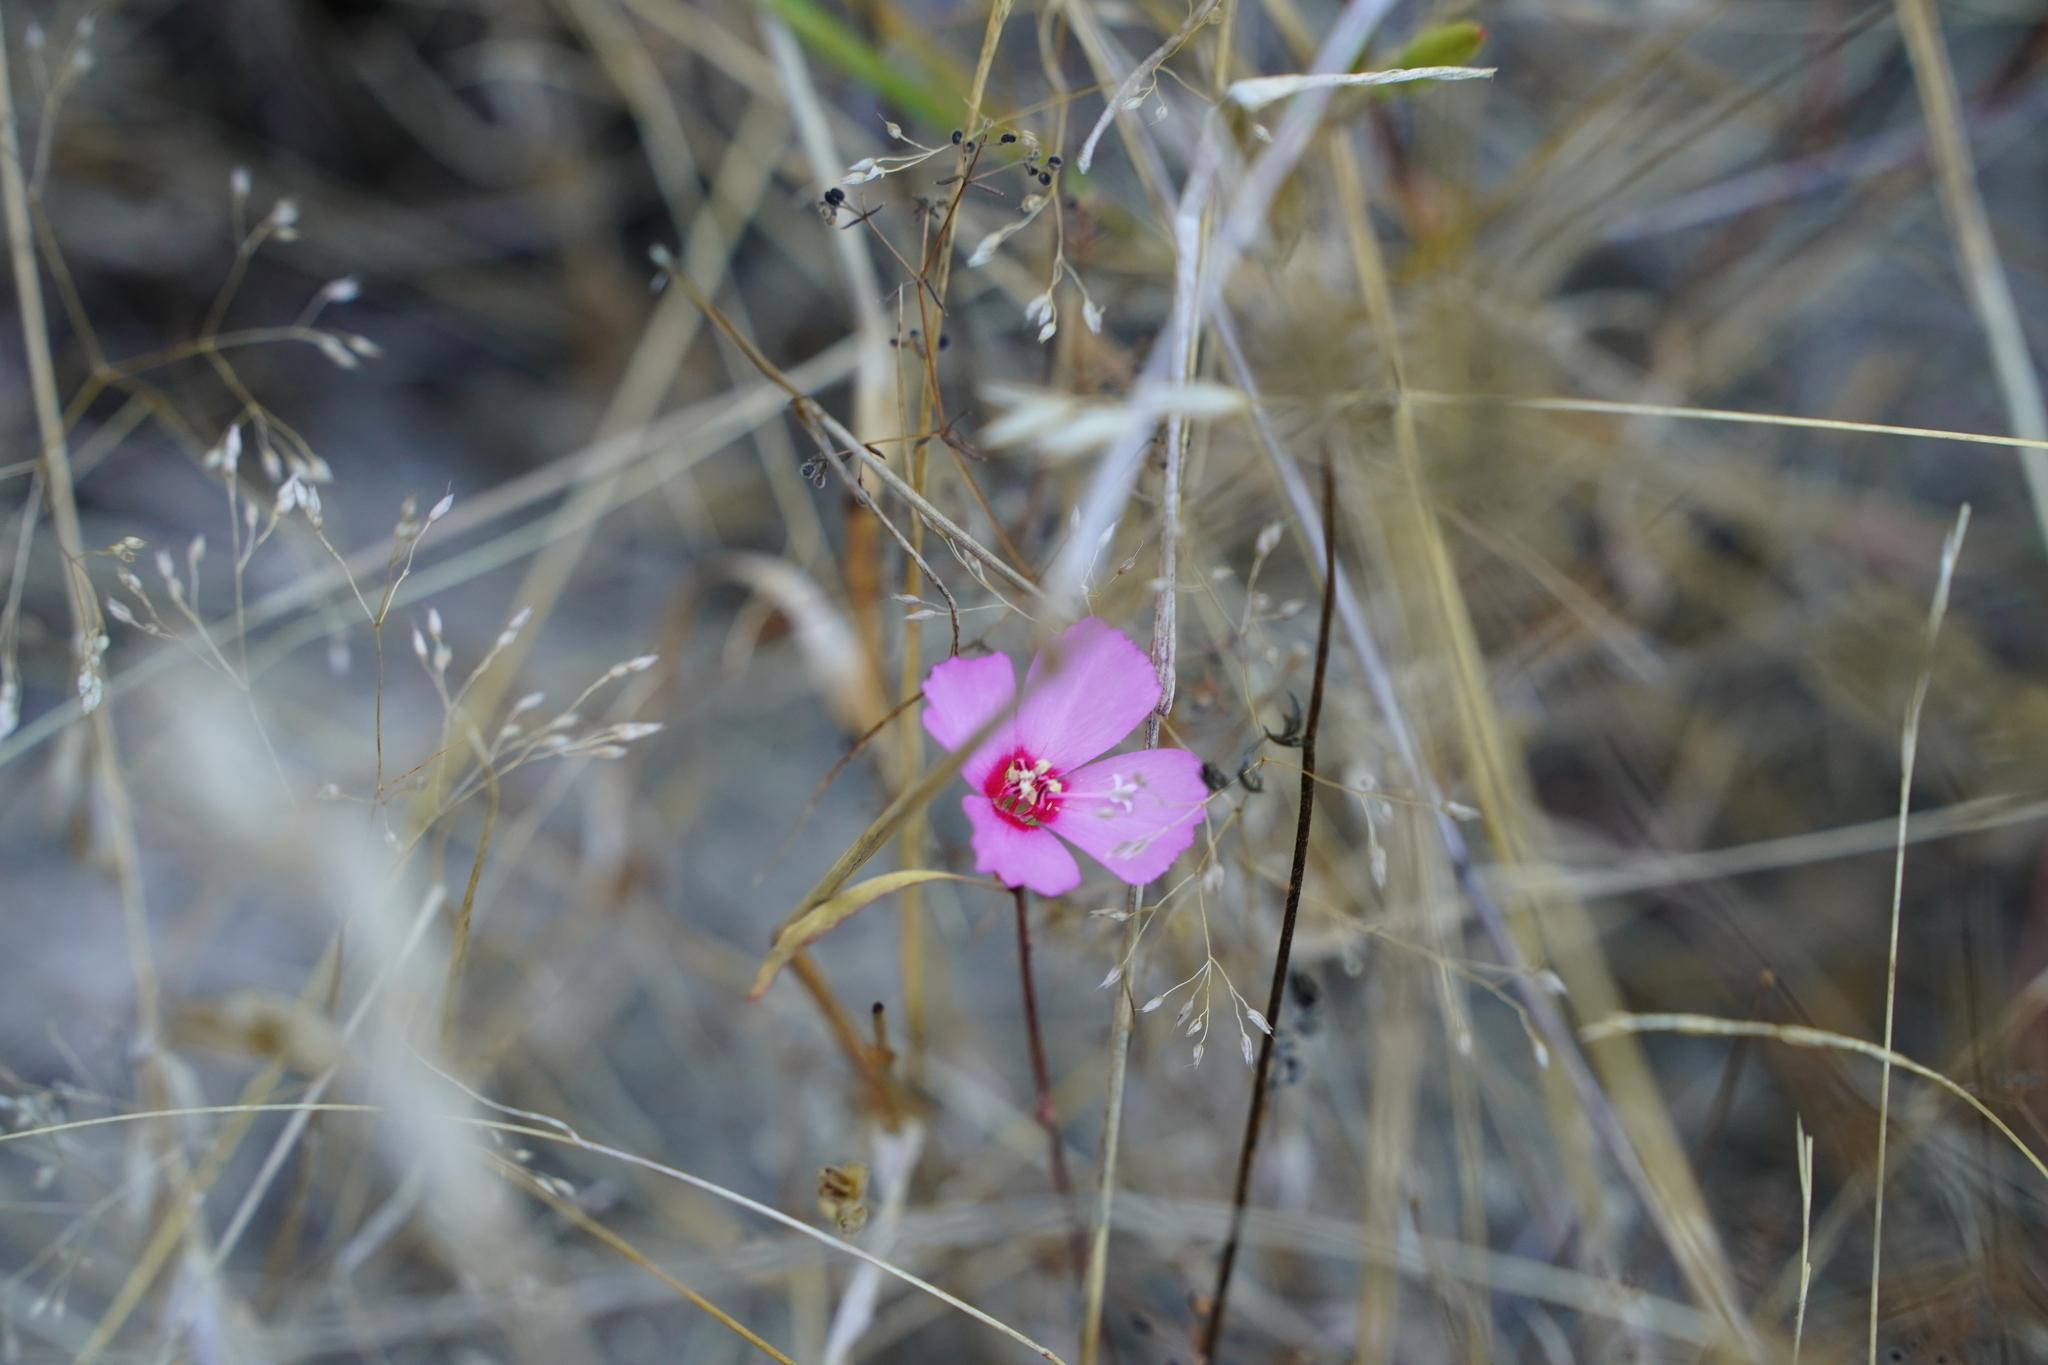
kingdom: Plantae
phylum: Tracheophyta
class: Magnoliopsida
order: Myrtales
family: Onagraceae
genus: Clarkia
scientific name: Clarkia rubicunda
